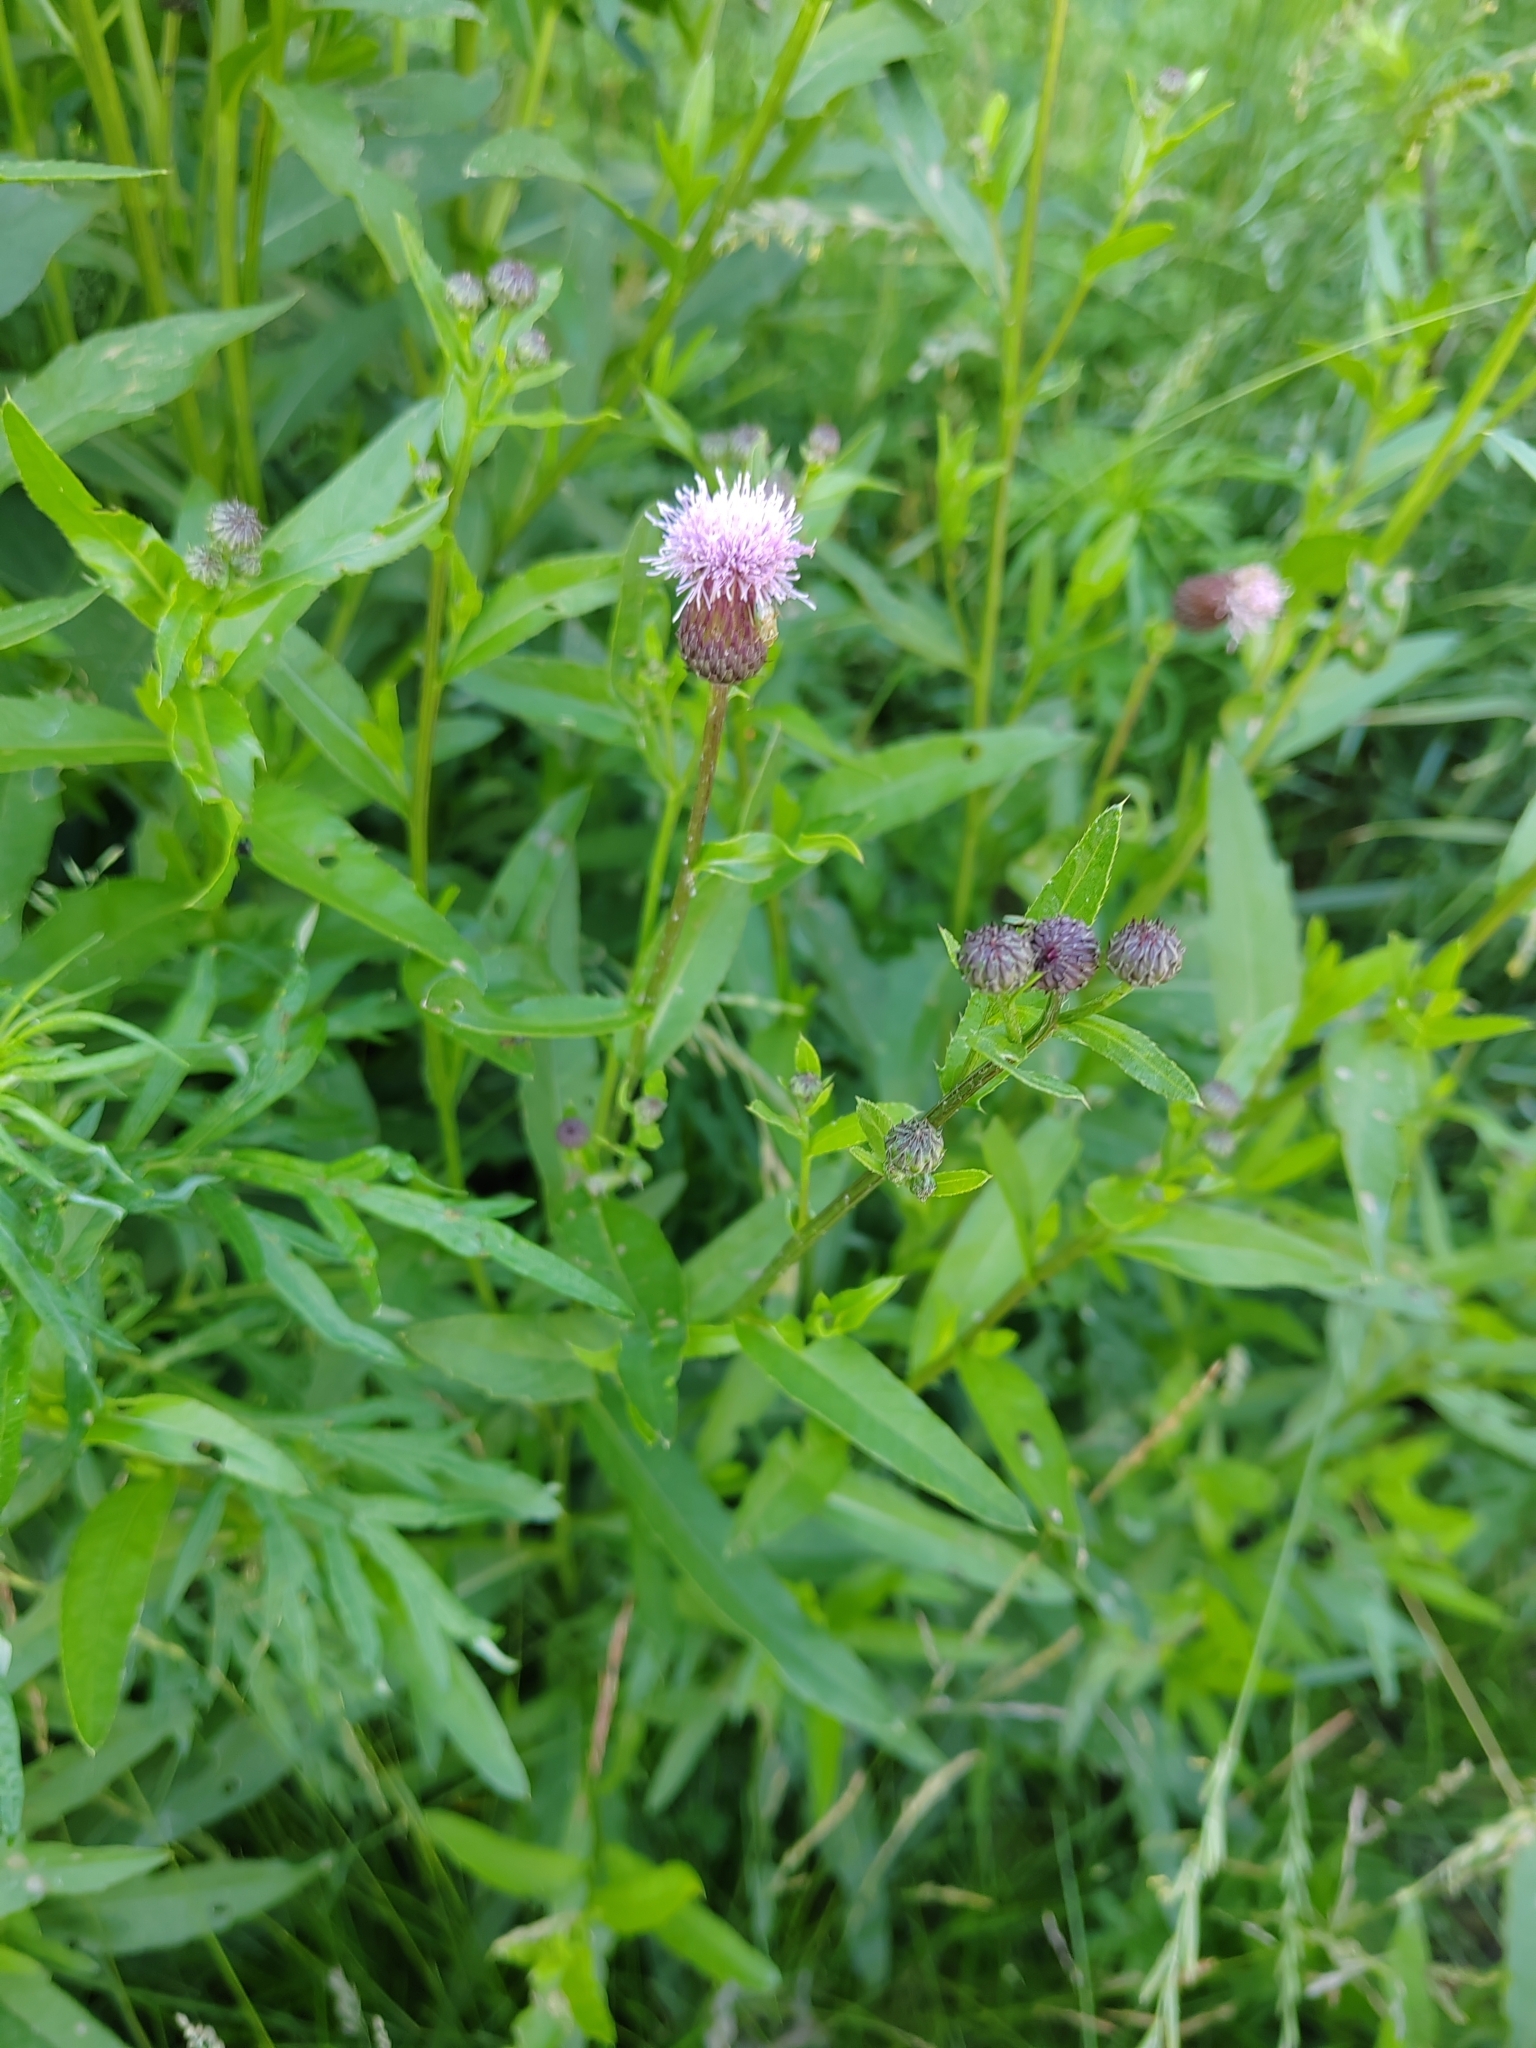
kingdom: Plantae
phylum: Tracheophyta
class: Magnoliopsida
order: Asterales
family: Asteraceae
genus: Cirsium
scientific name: Cirsium arvense
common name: Creeping thistle
